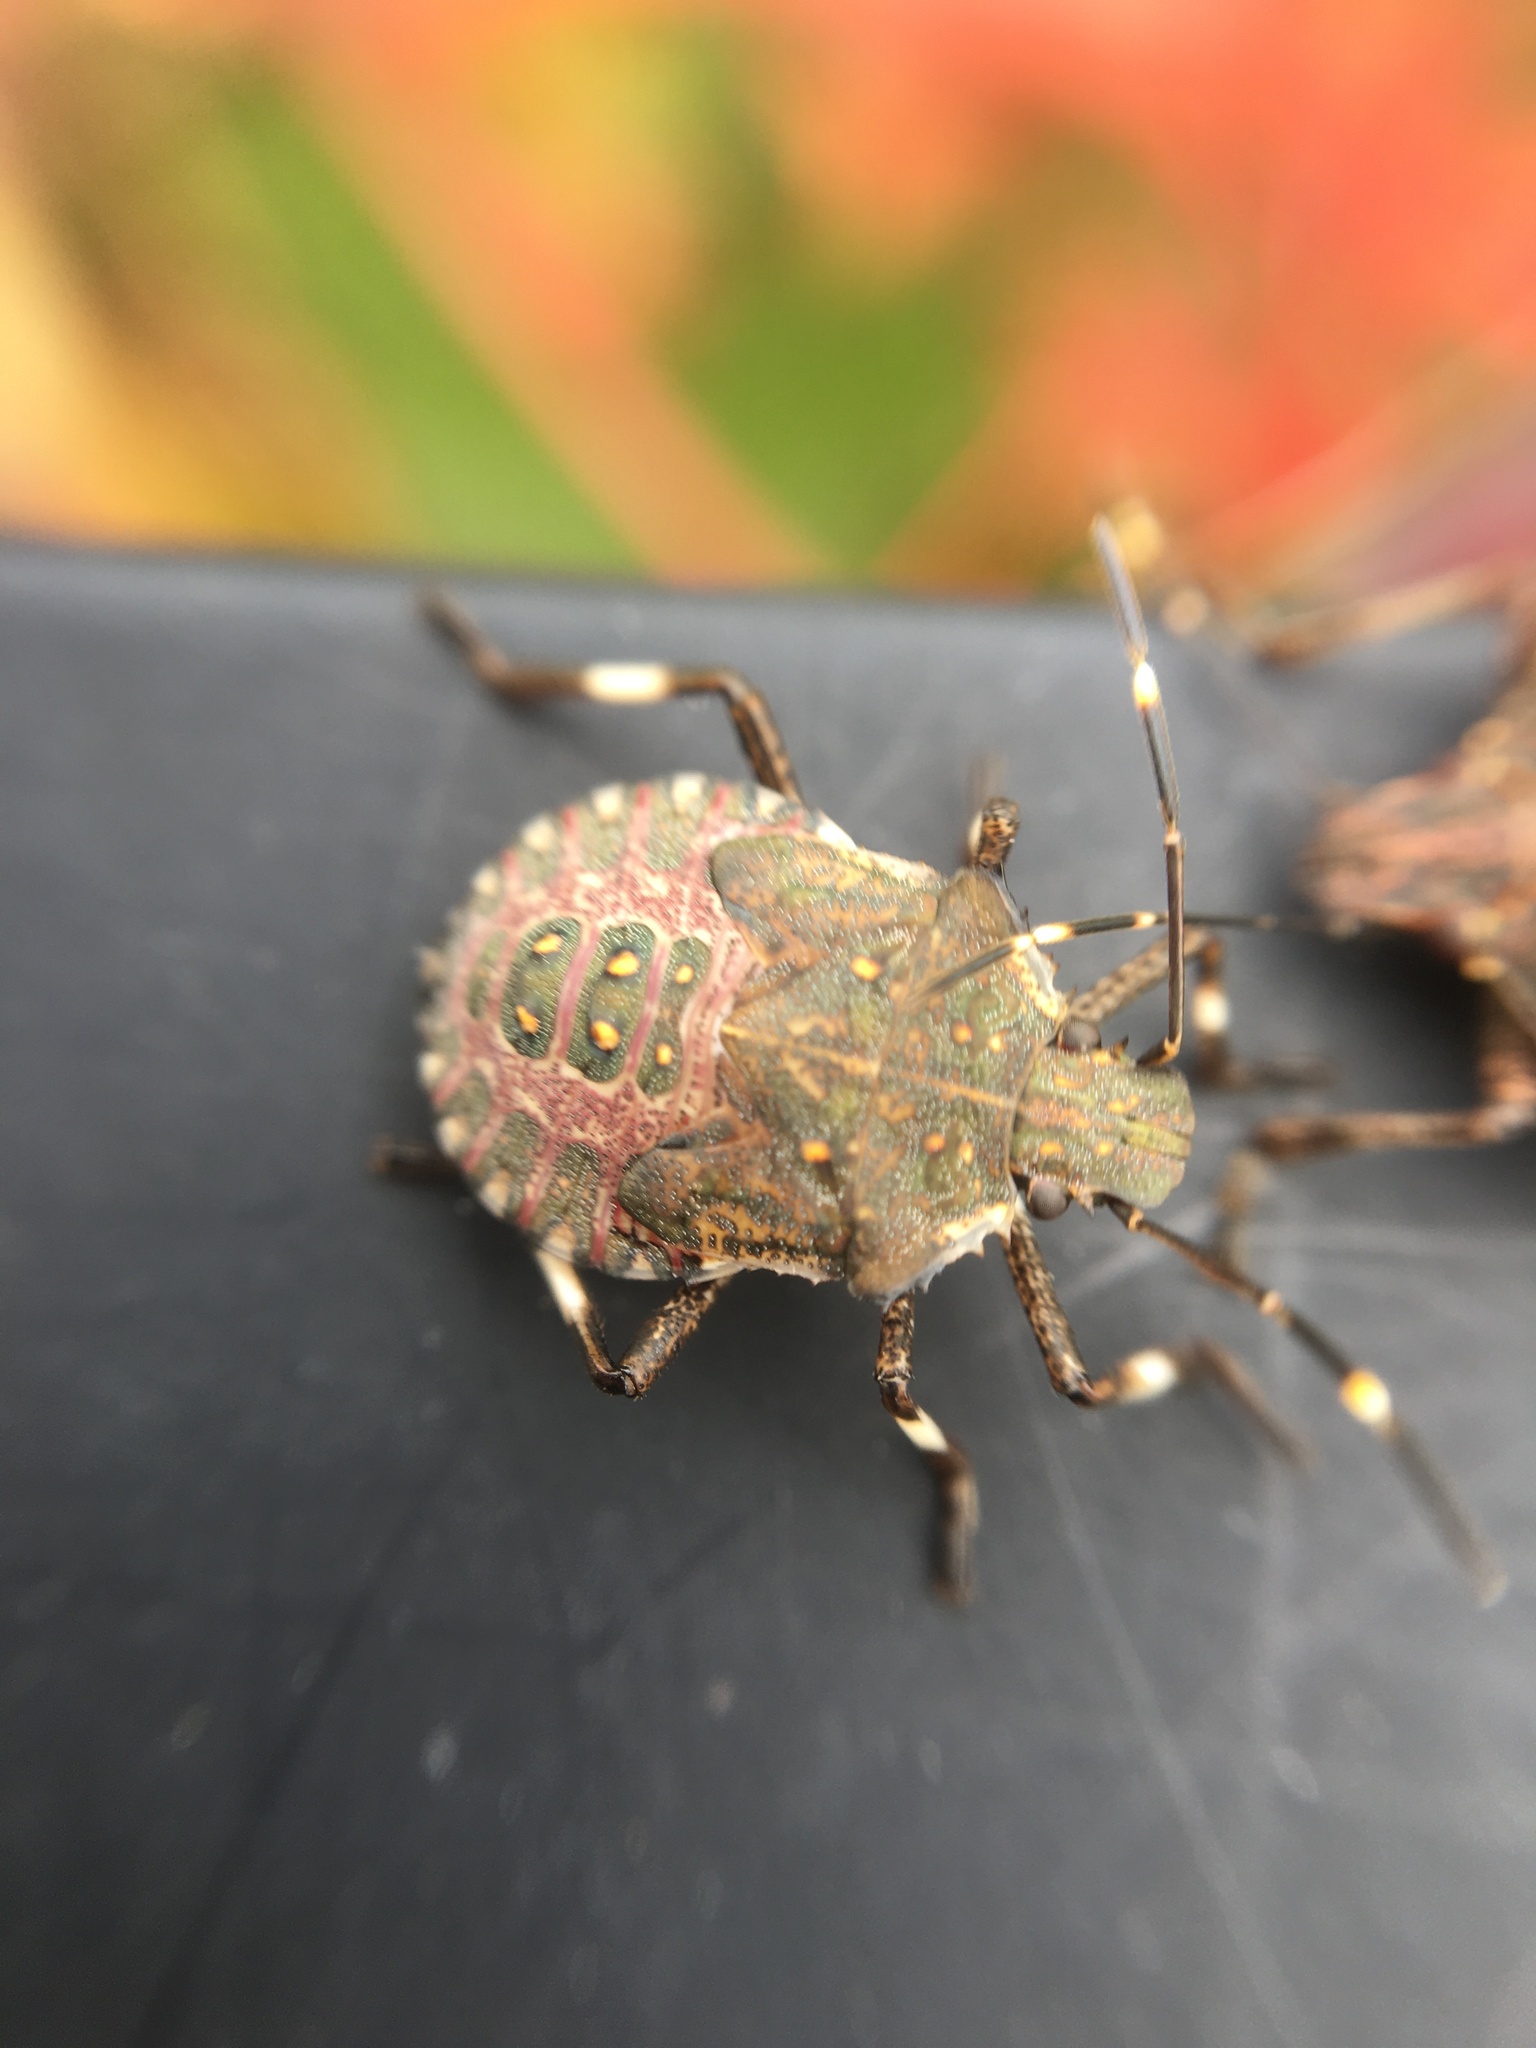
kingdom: Animalia
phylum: Arthropoda
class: Insecta
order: Hemiptera
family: Pentatomidae
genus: Halyomorpha
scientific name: Halyomorpha halys
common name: Brown marmorated stink bug
